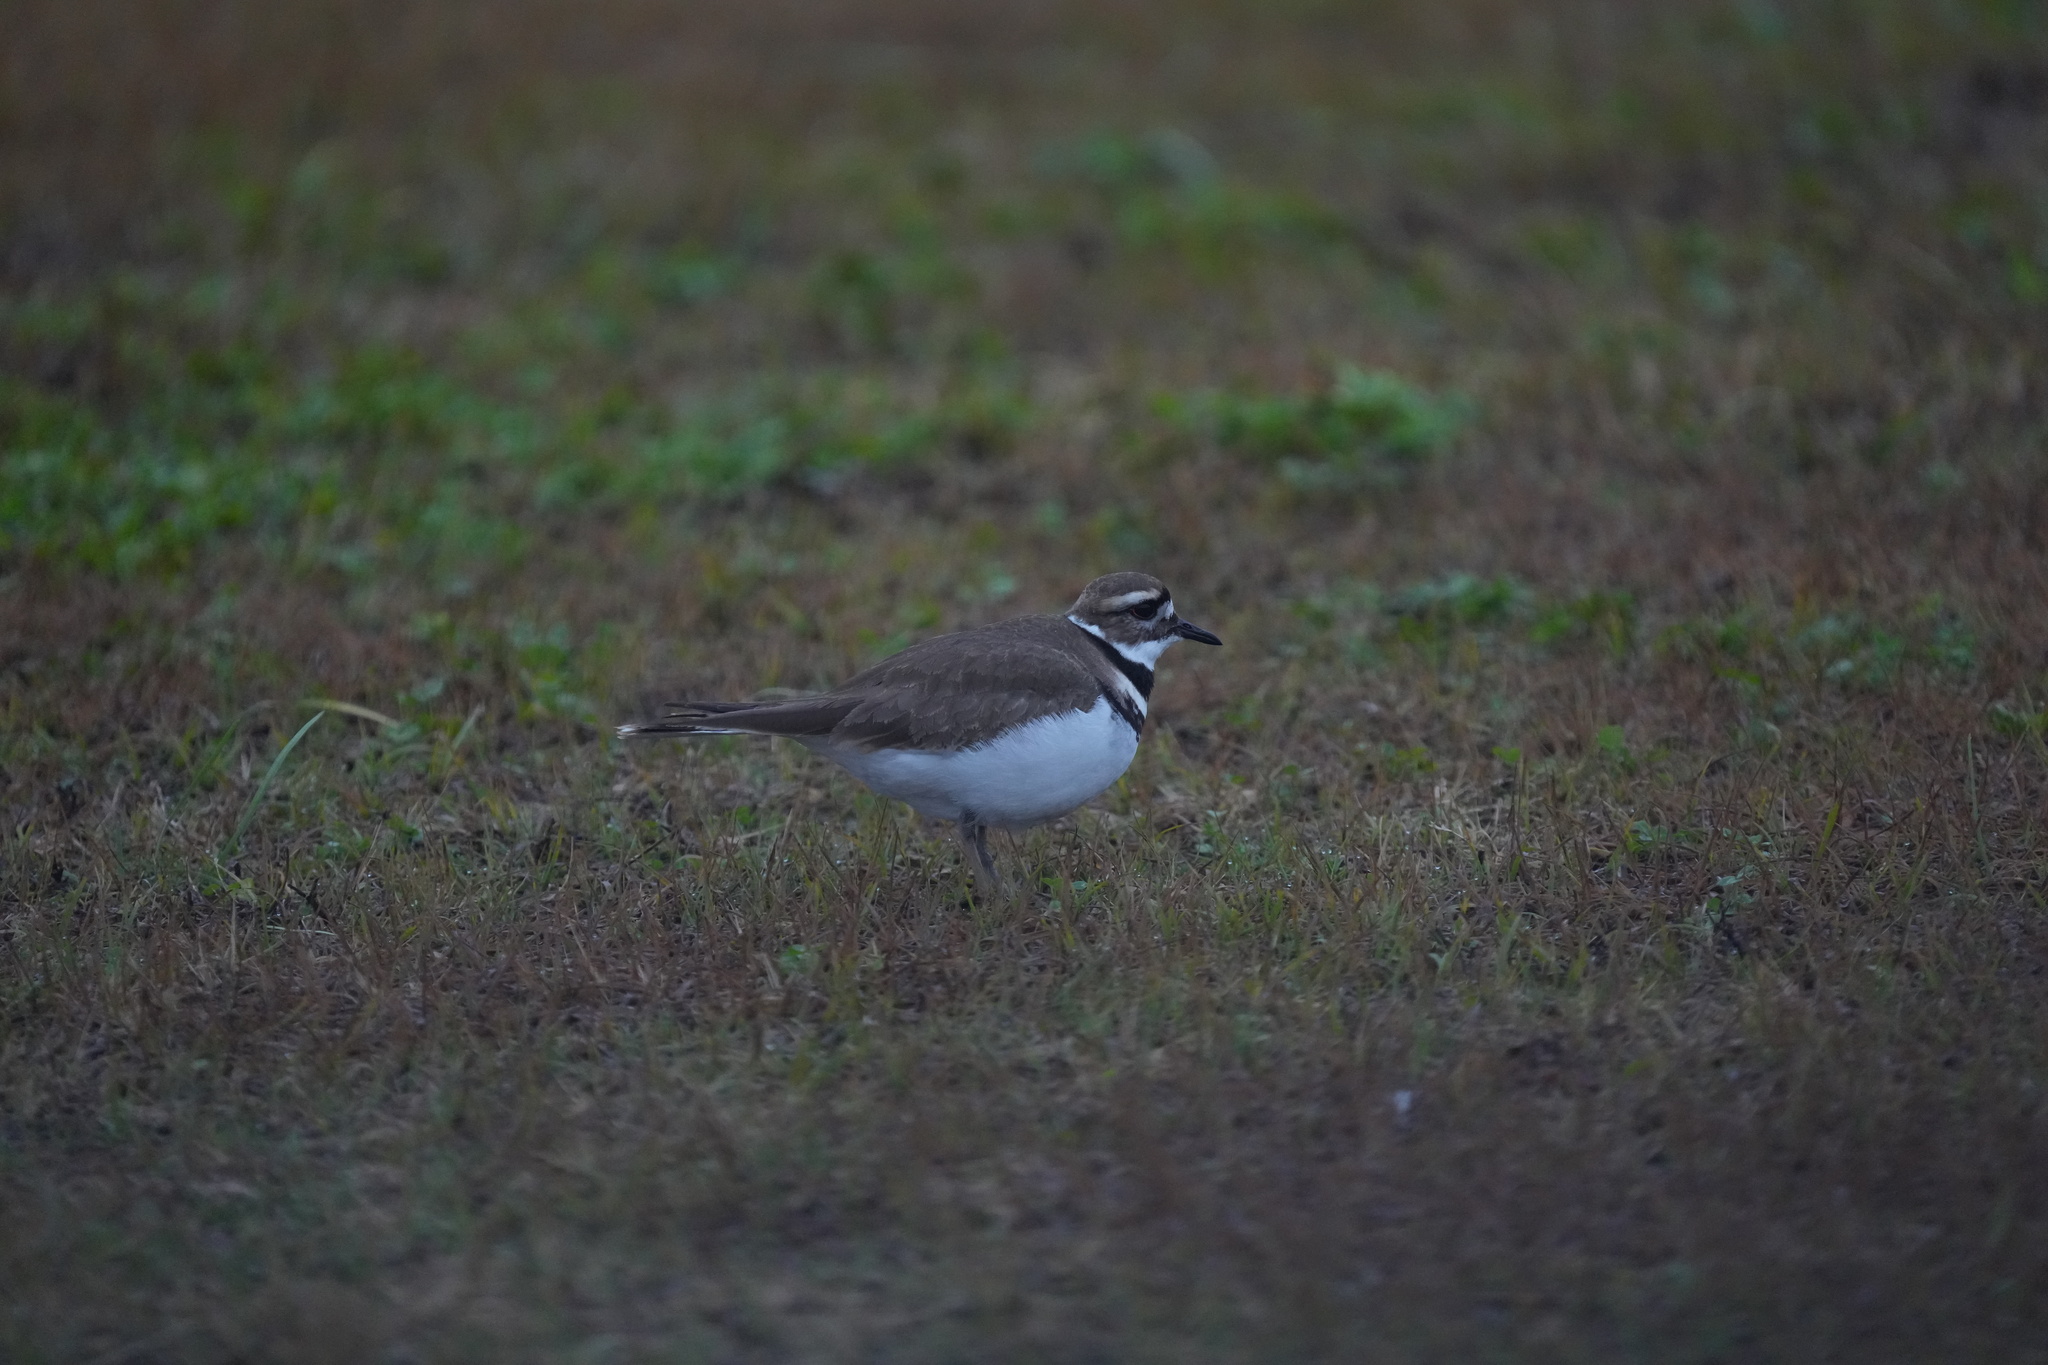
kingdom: Animalia
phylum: Chordata
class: Aves
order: Charadriiformes
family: Charadriidae
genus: Charadrius
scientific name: Charadrius vociferus
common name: Killdeer
